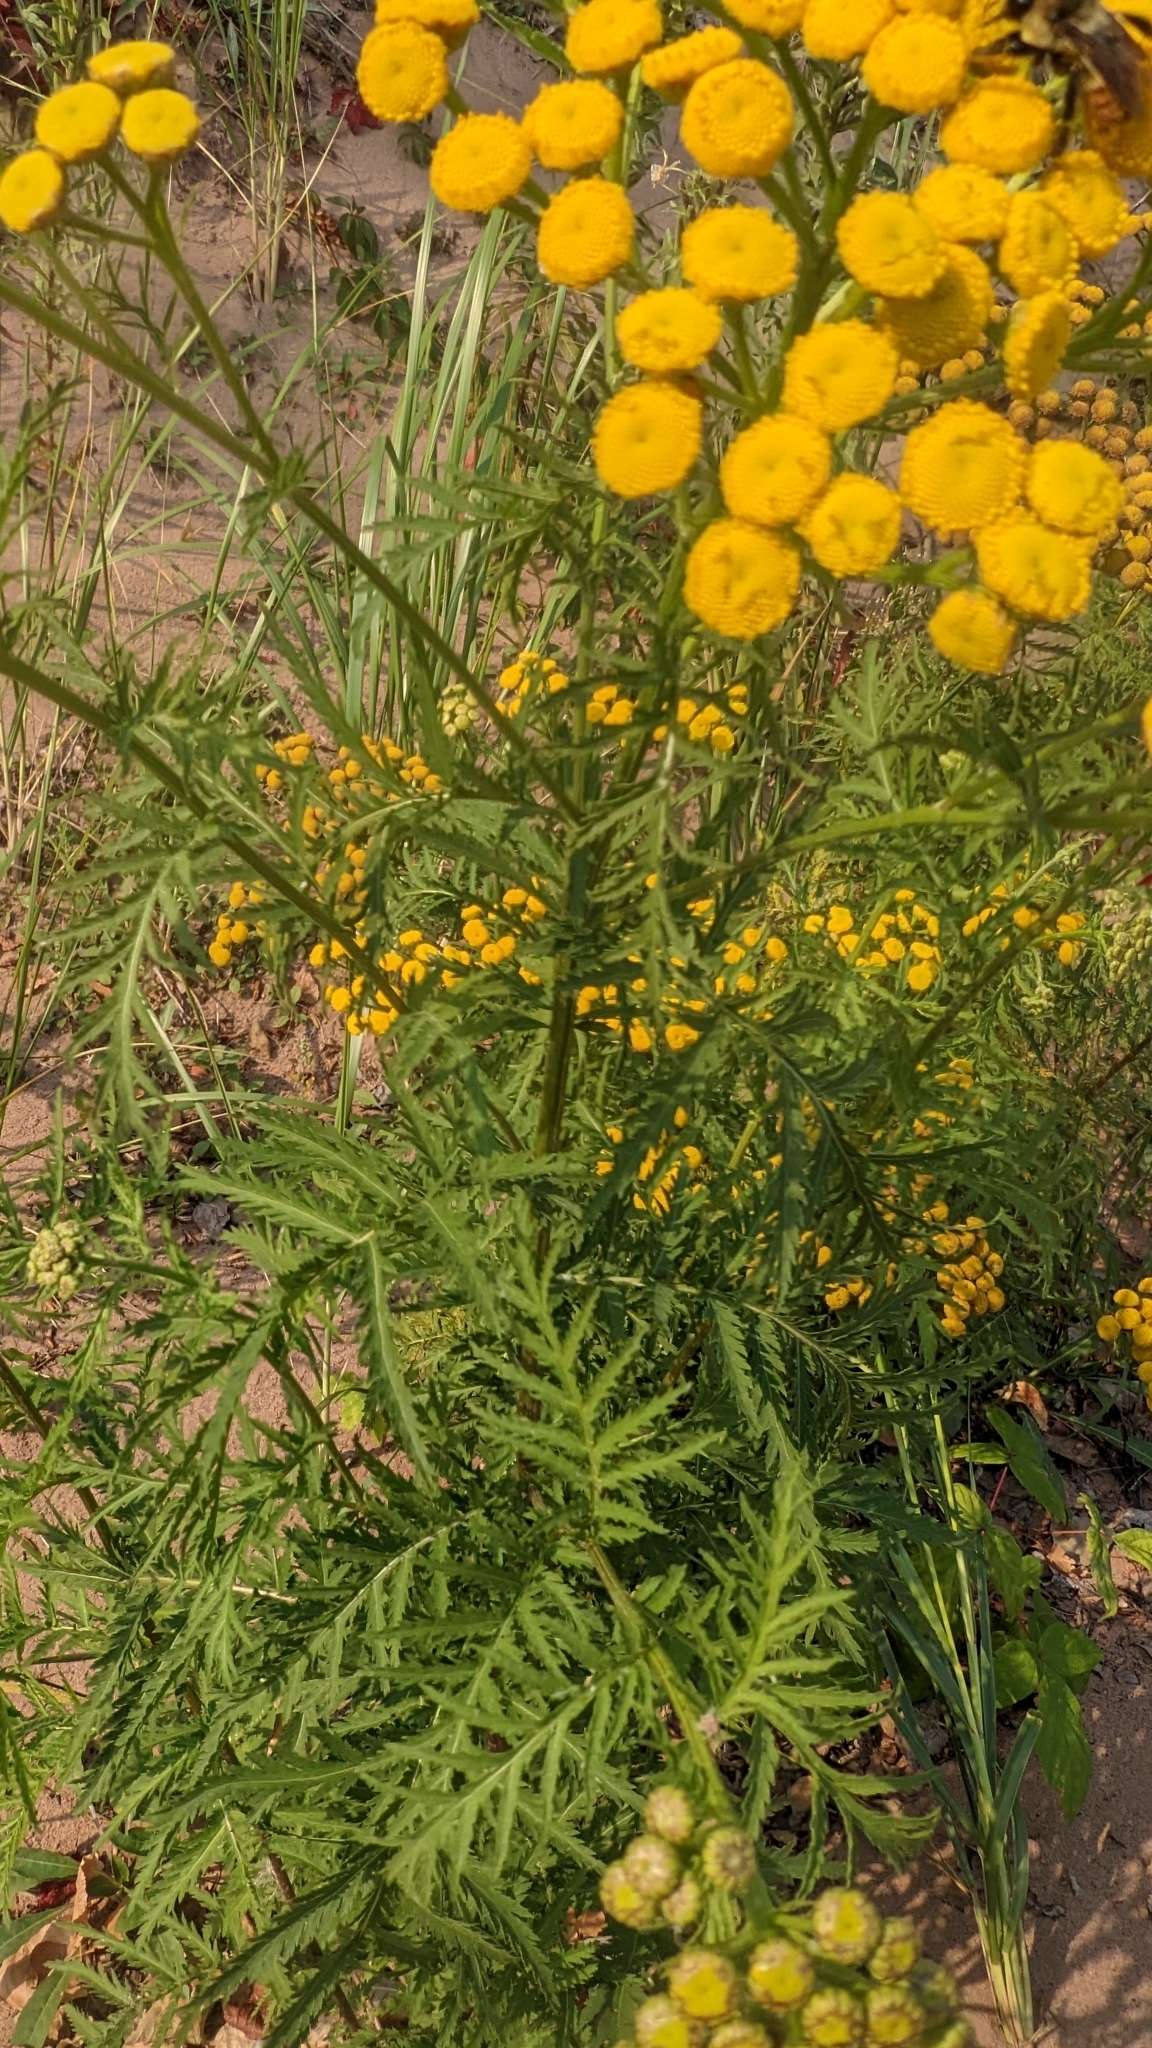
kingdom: Plantae
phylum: Tracheophyta
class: Magnoliopsida
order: Asterales
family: Asteraceae
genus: Tanacetum
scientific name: Tanacetum vulgare
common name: Common tansy
